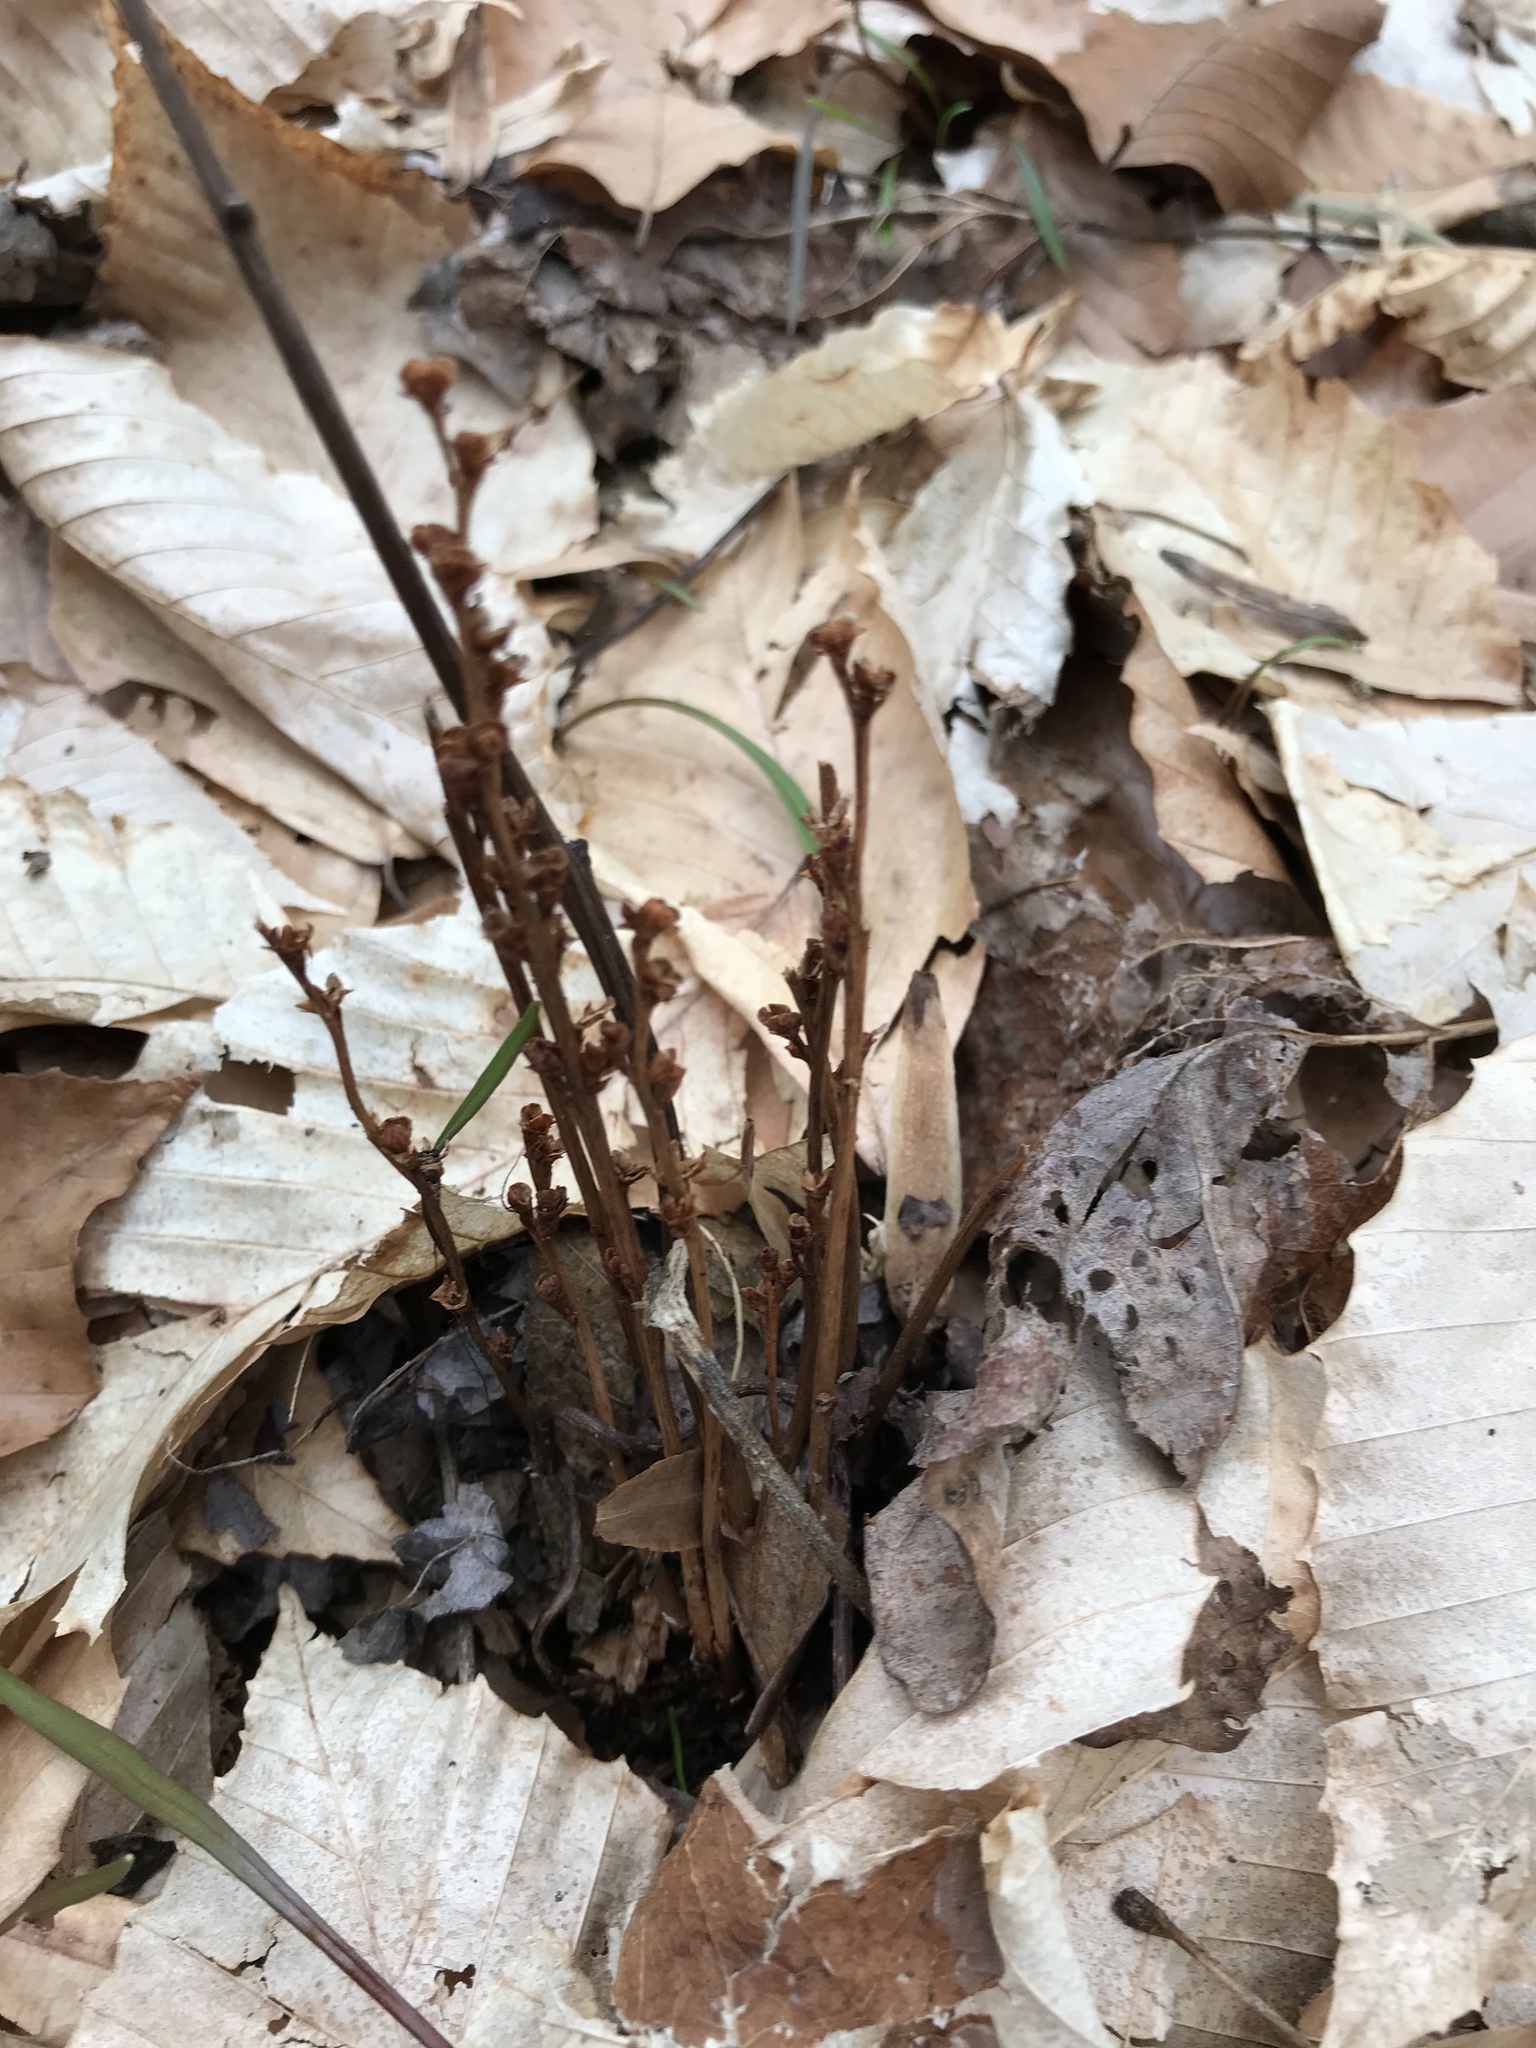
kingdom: Plantae
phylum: Tracheophyta
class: Magnoliopsida
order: Lamiales
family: Orobanchaceae
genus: Epifagus
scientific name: Epifagus virginiana
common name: Beechdrops
